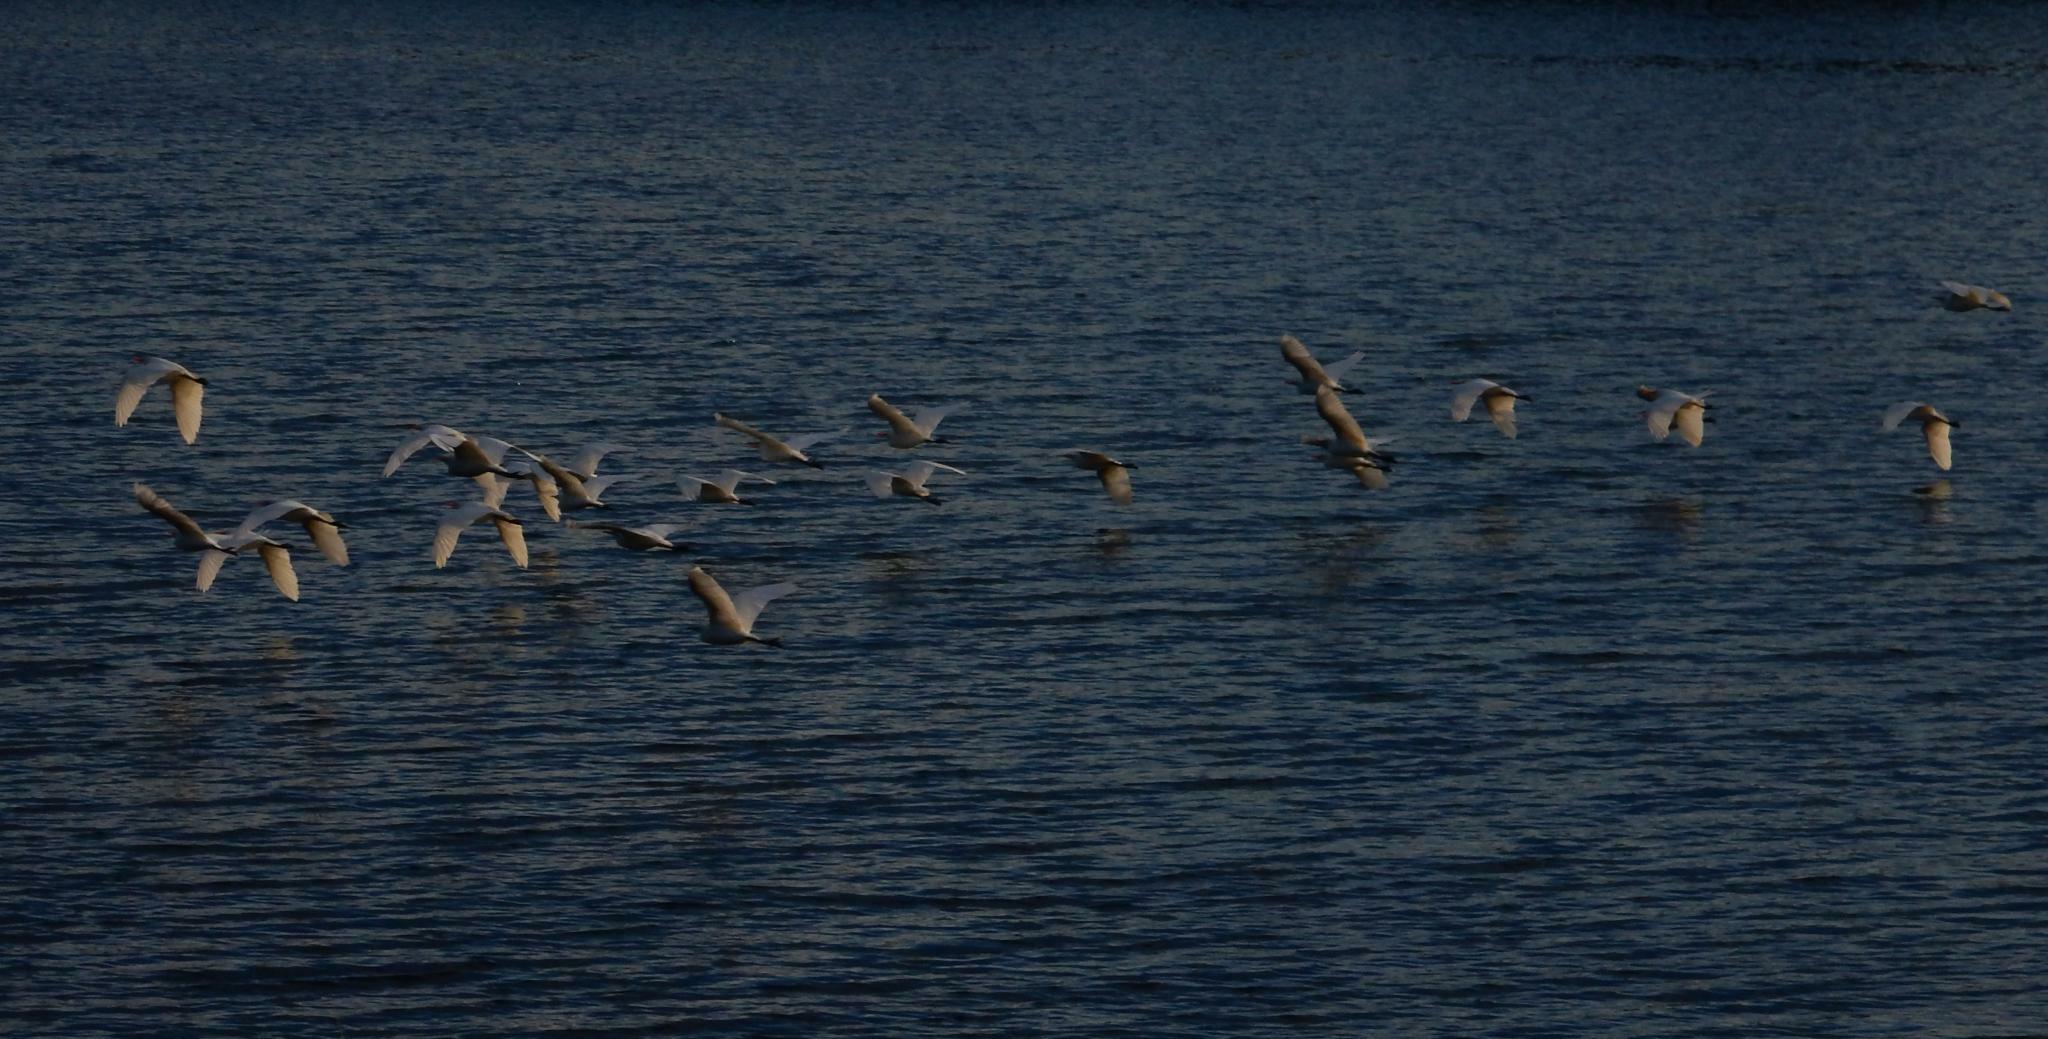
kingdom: Animalia
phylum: Chordata
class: Aves
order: Pelecaniformes
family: Ardeidae
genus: Bubulcus
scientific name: Bubulcus ibis
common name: Cattle egret
